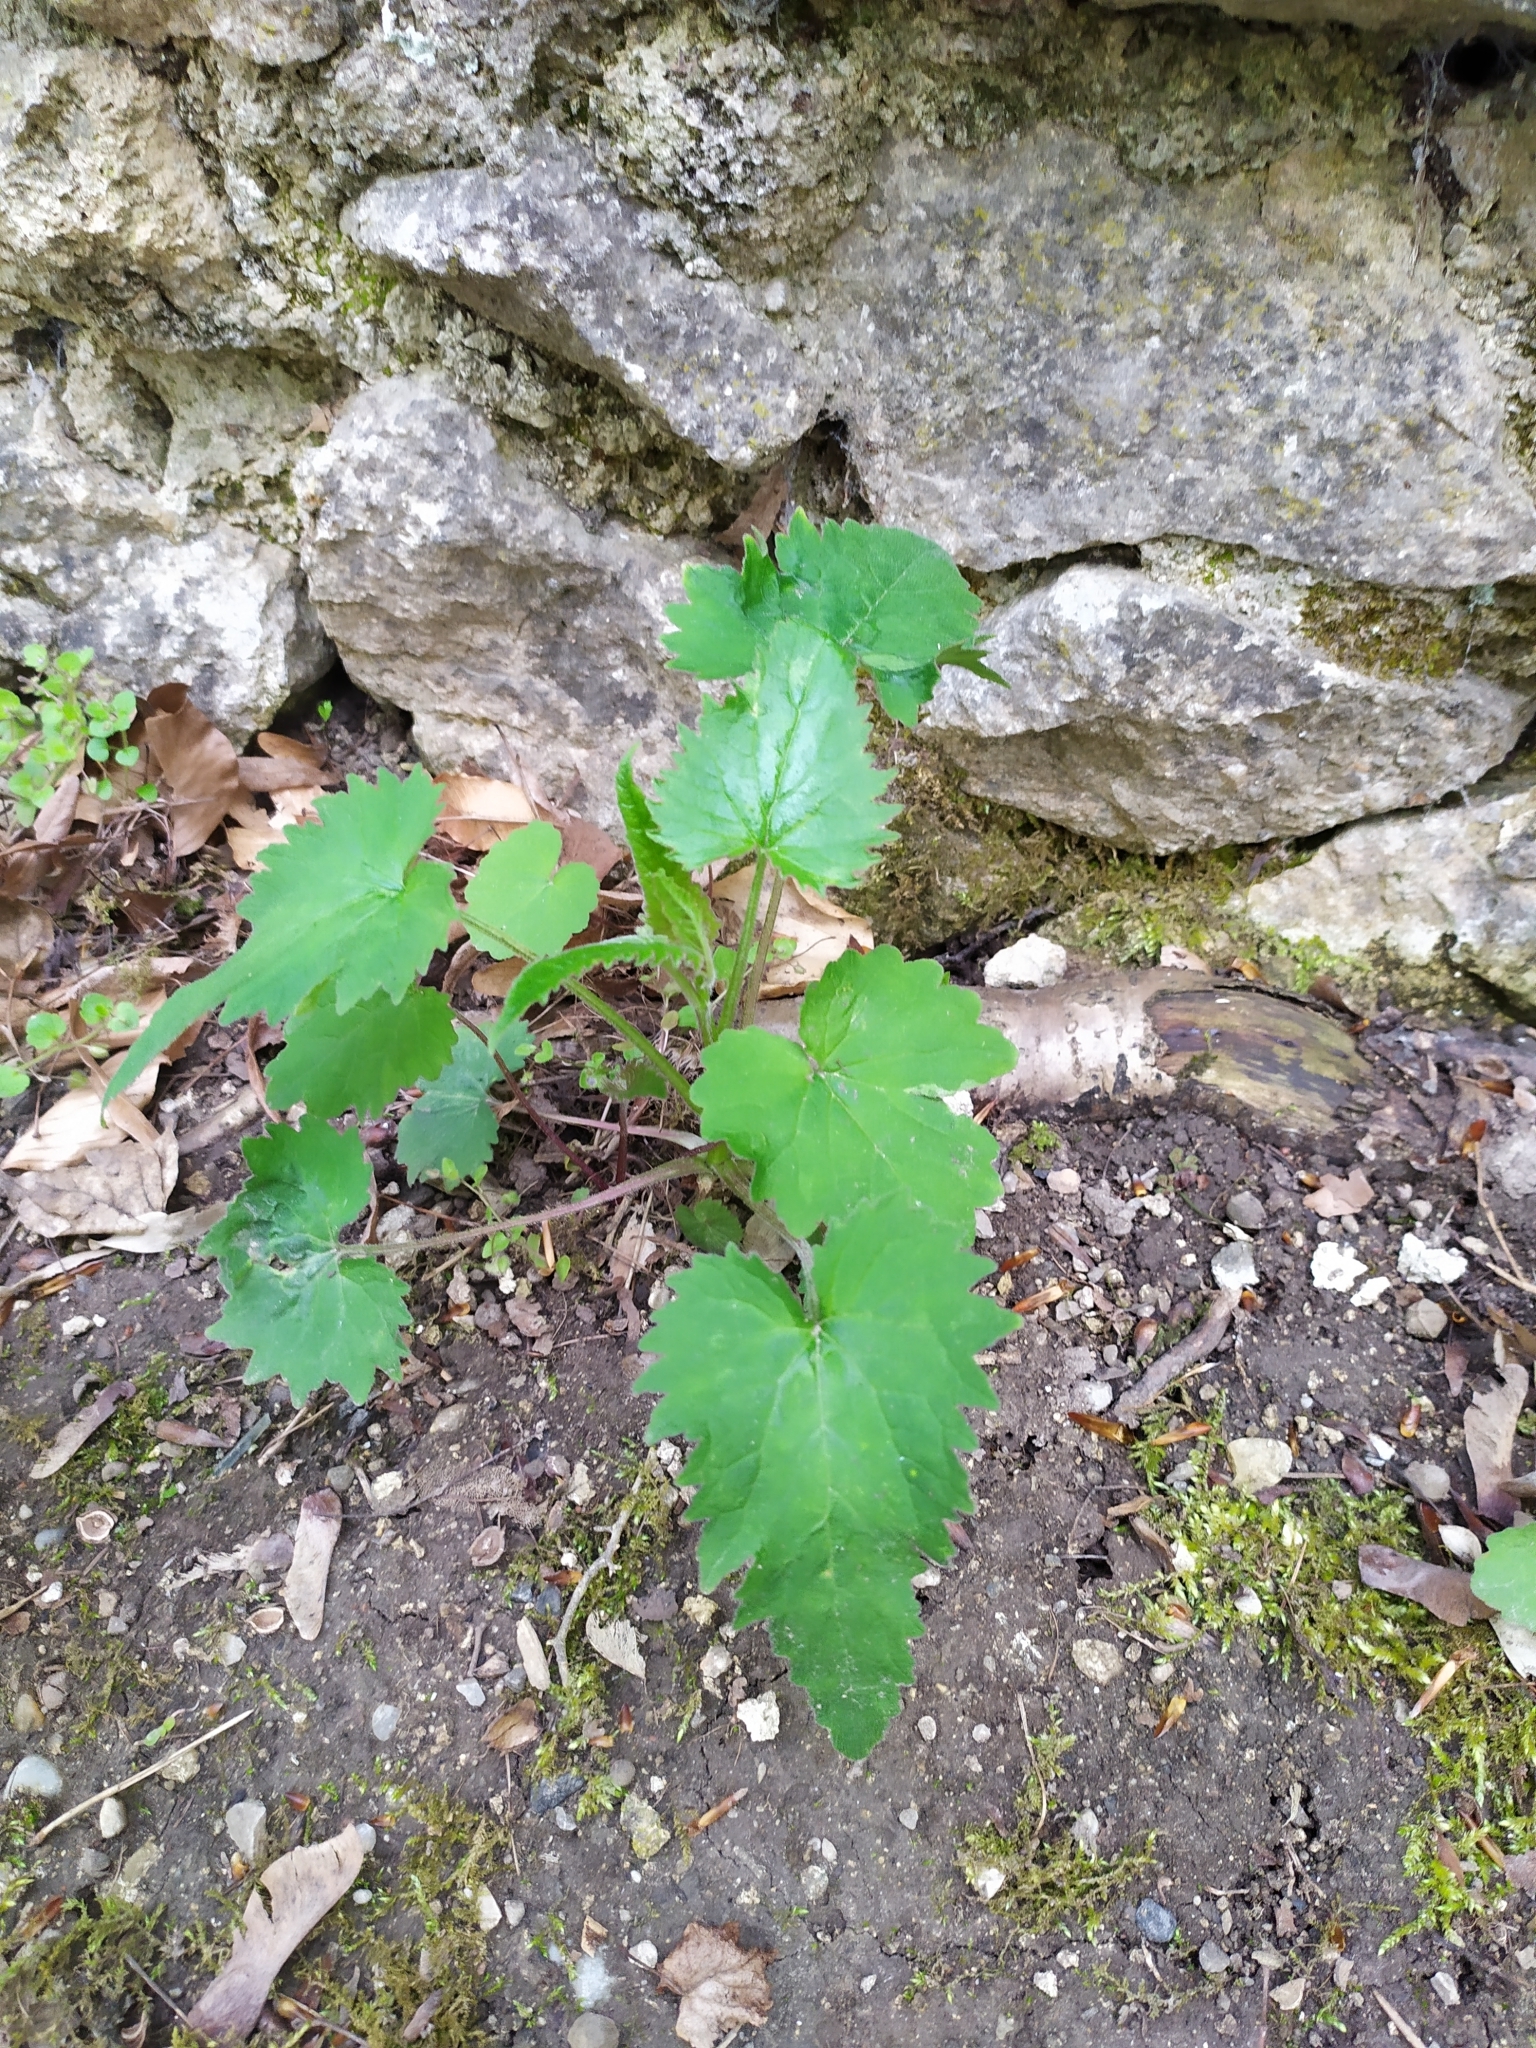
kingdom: Plantae
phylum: Tracheophyta
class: Magnoliopsida
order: Asterales
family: Campanulaceae
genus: Campanula
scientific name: Campanula trachelium
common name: Nettle-leaved bellflower
